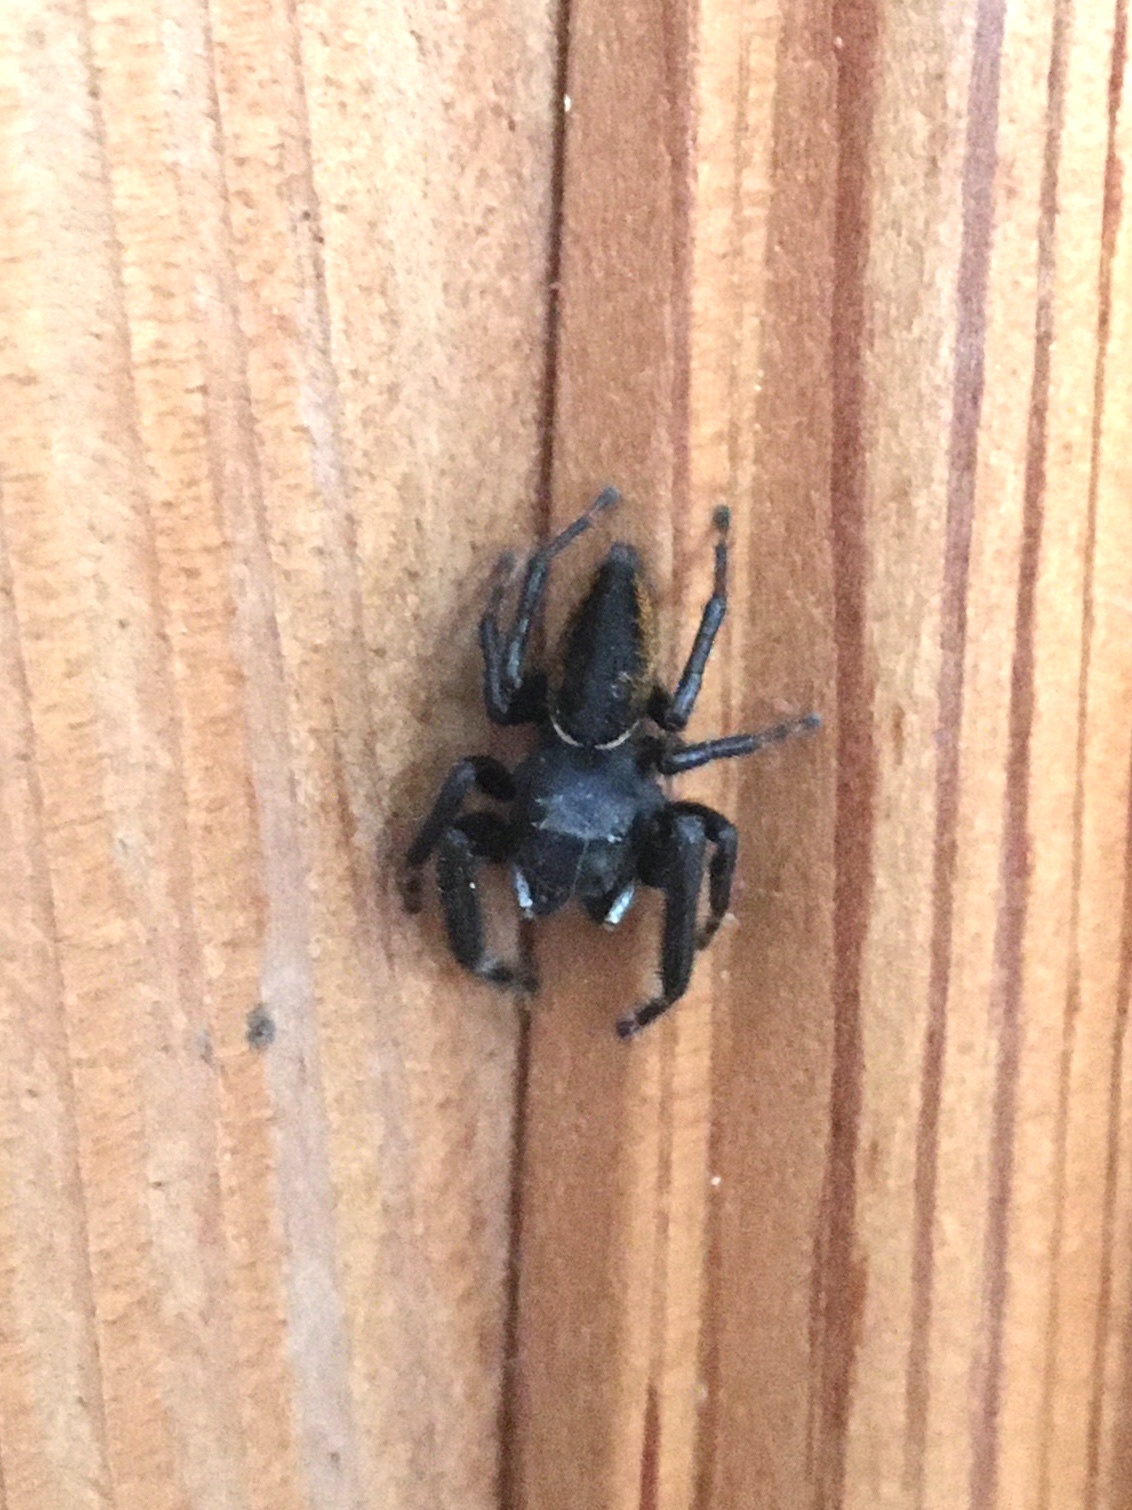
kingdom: Animalia
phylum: Arthropoda
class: Arachnida
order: Araneae
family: Salticidae
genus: Phidippus
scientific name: Phidippus clarus
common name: Brilliant jumping spider
